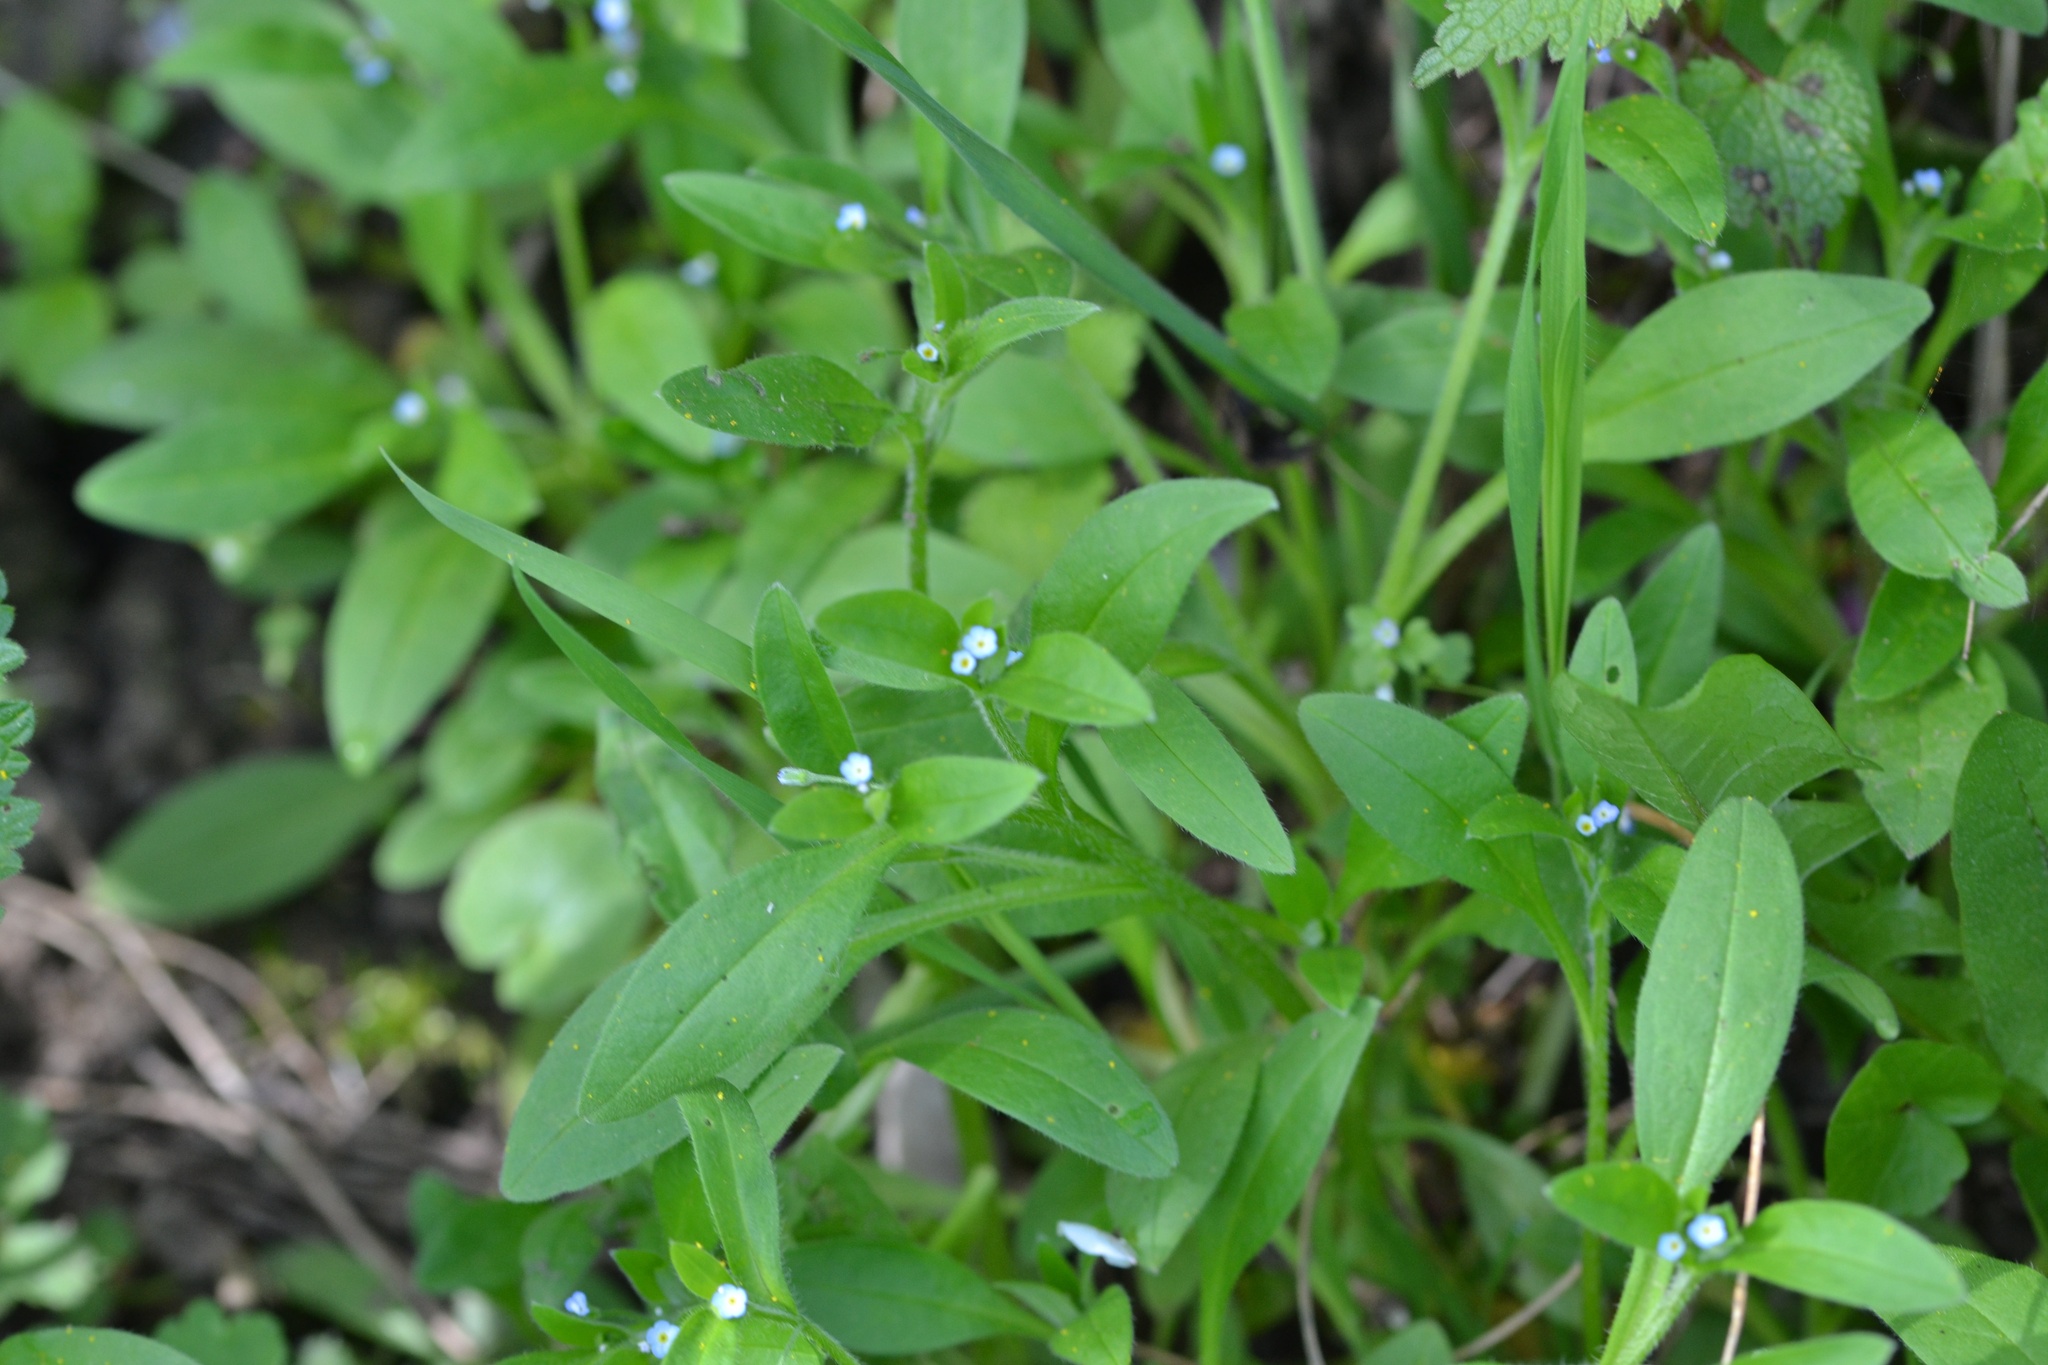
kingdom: Plantae
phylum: Tracheophyta
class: Magnoliopsida
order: Boraginales
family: Boraginaceae
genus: Myosotis
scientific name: Myosotis sparsiflora
